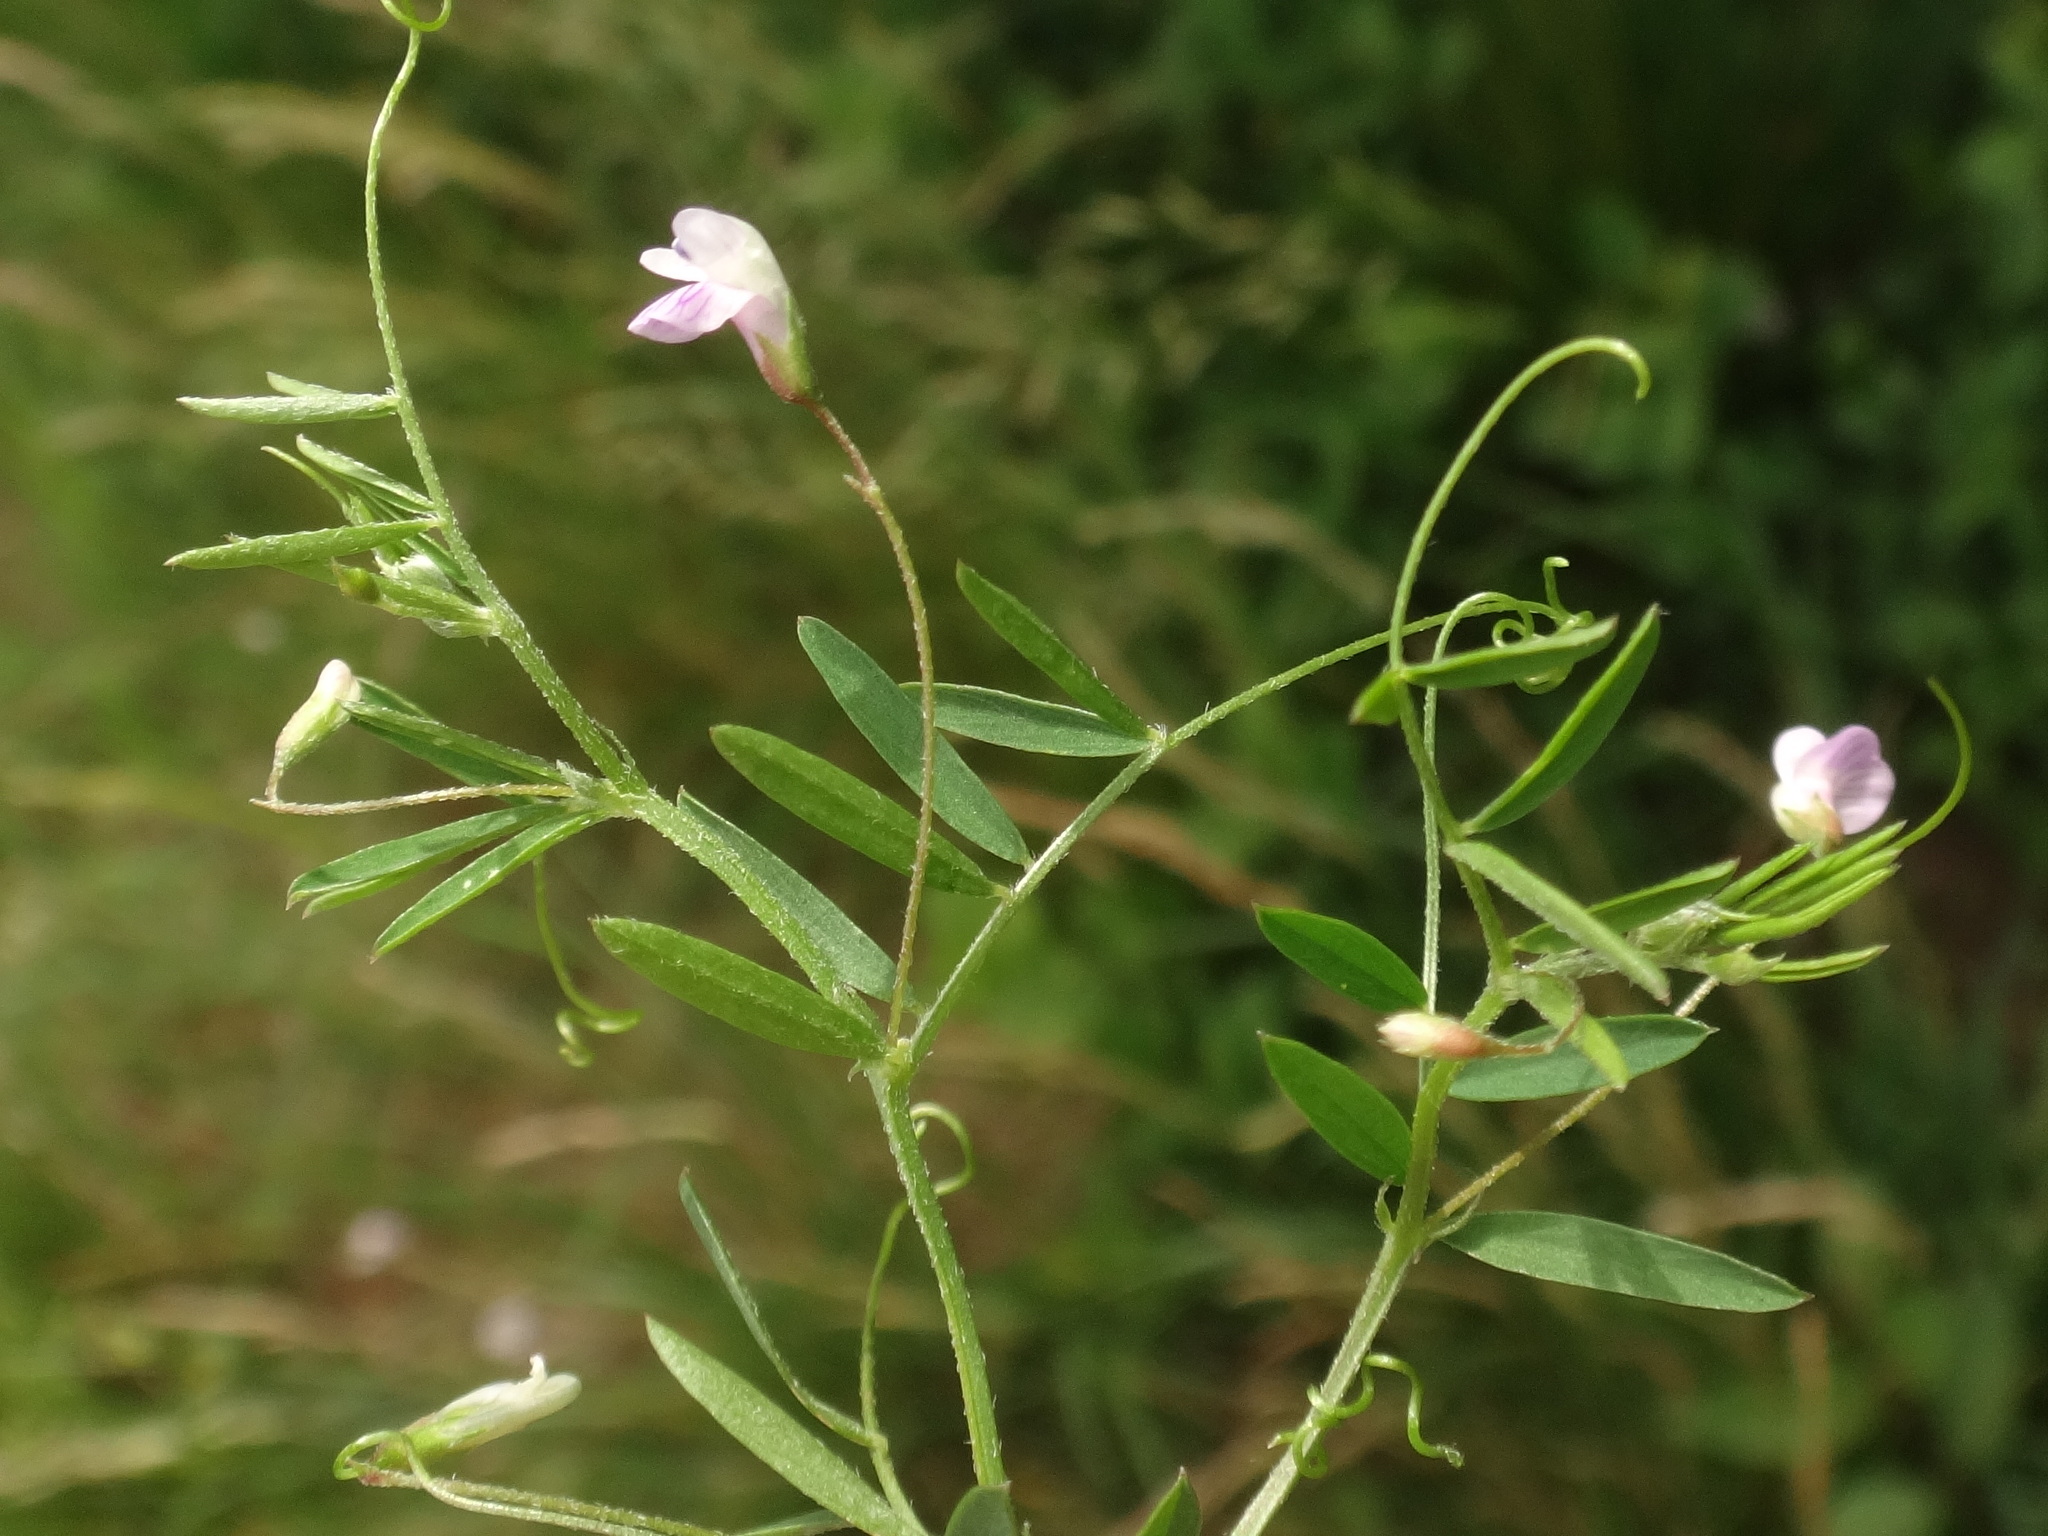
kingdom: Plantae
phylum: Tracheophyta
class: Magnoliopsida
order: Fabales
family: Fabaceae
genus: Vicia
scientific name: Vicia tetrasperma
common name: Smooth tare
